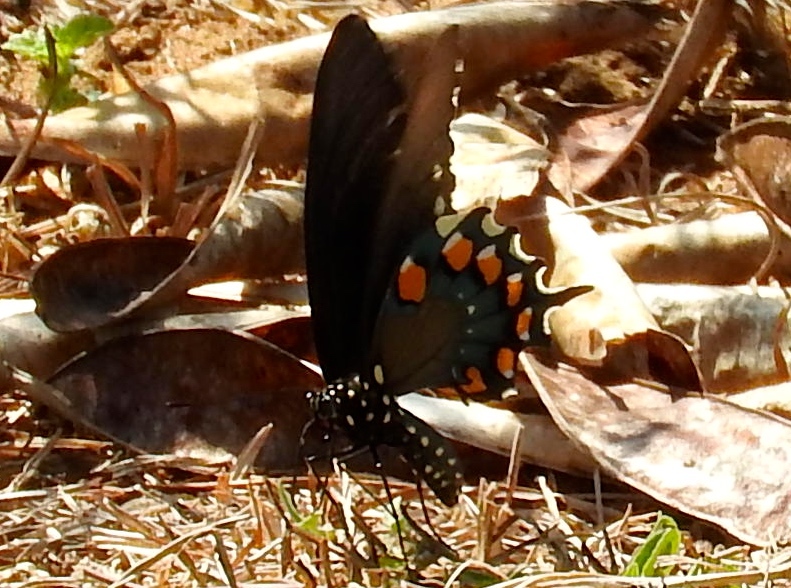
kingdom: Animalia
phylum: Arthropoda
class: Insecta
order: Lepidoptera
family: Papilionidae
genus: Battus
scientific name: Battus philenor
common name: Pipevine swallowtail
